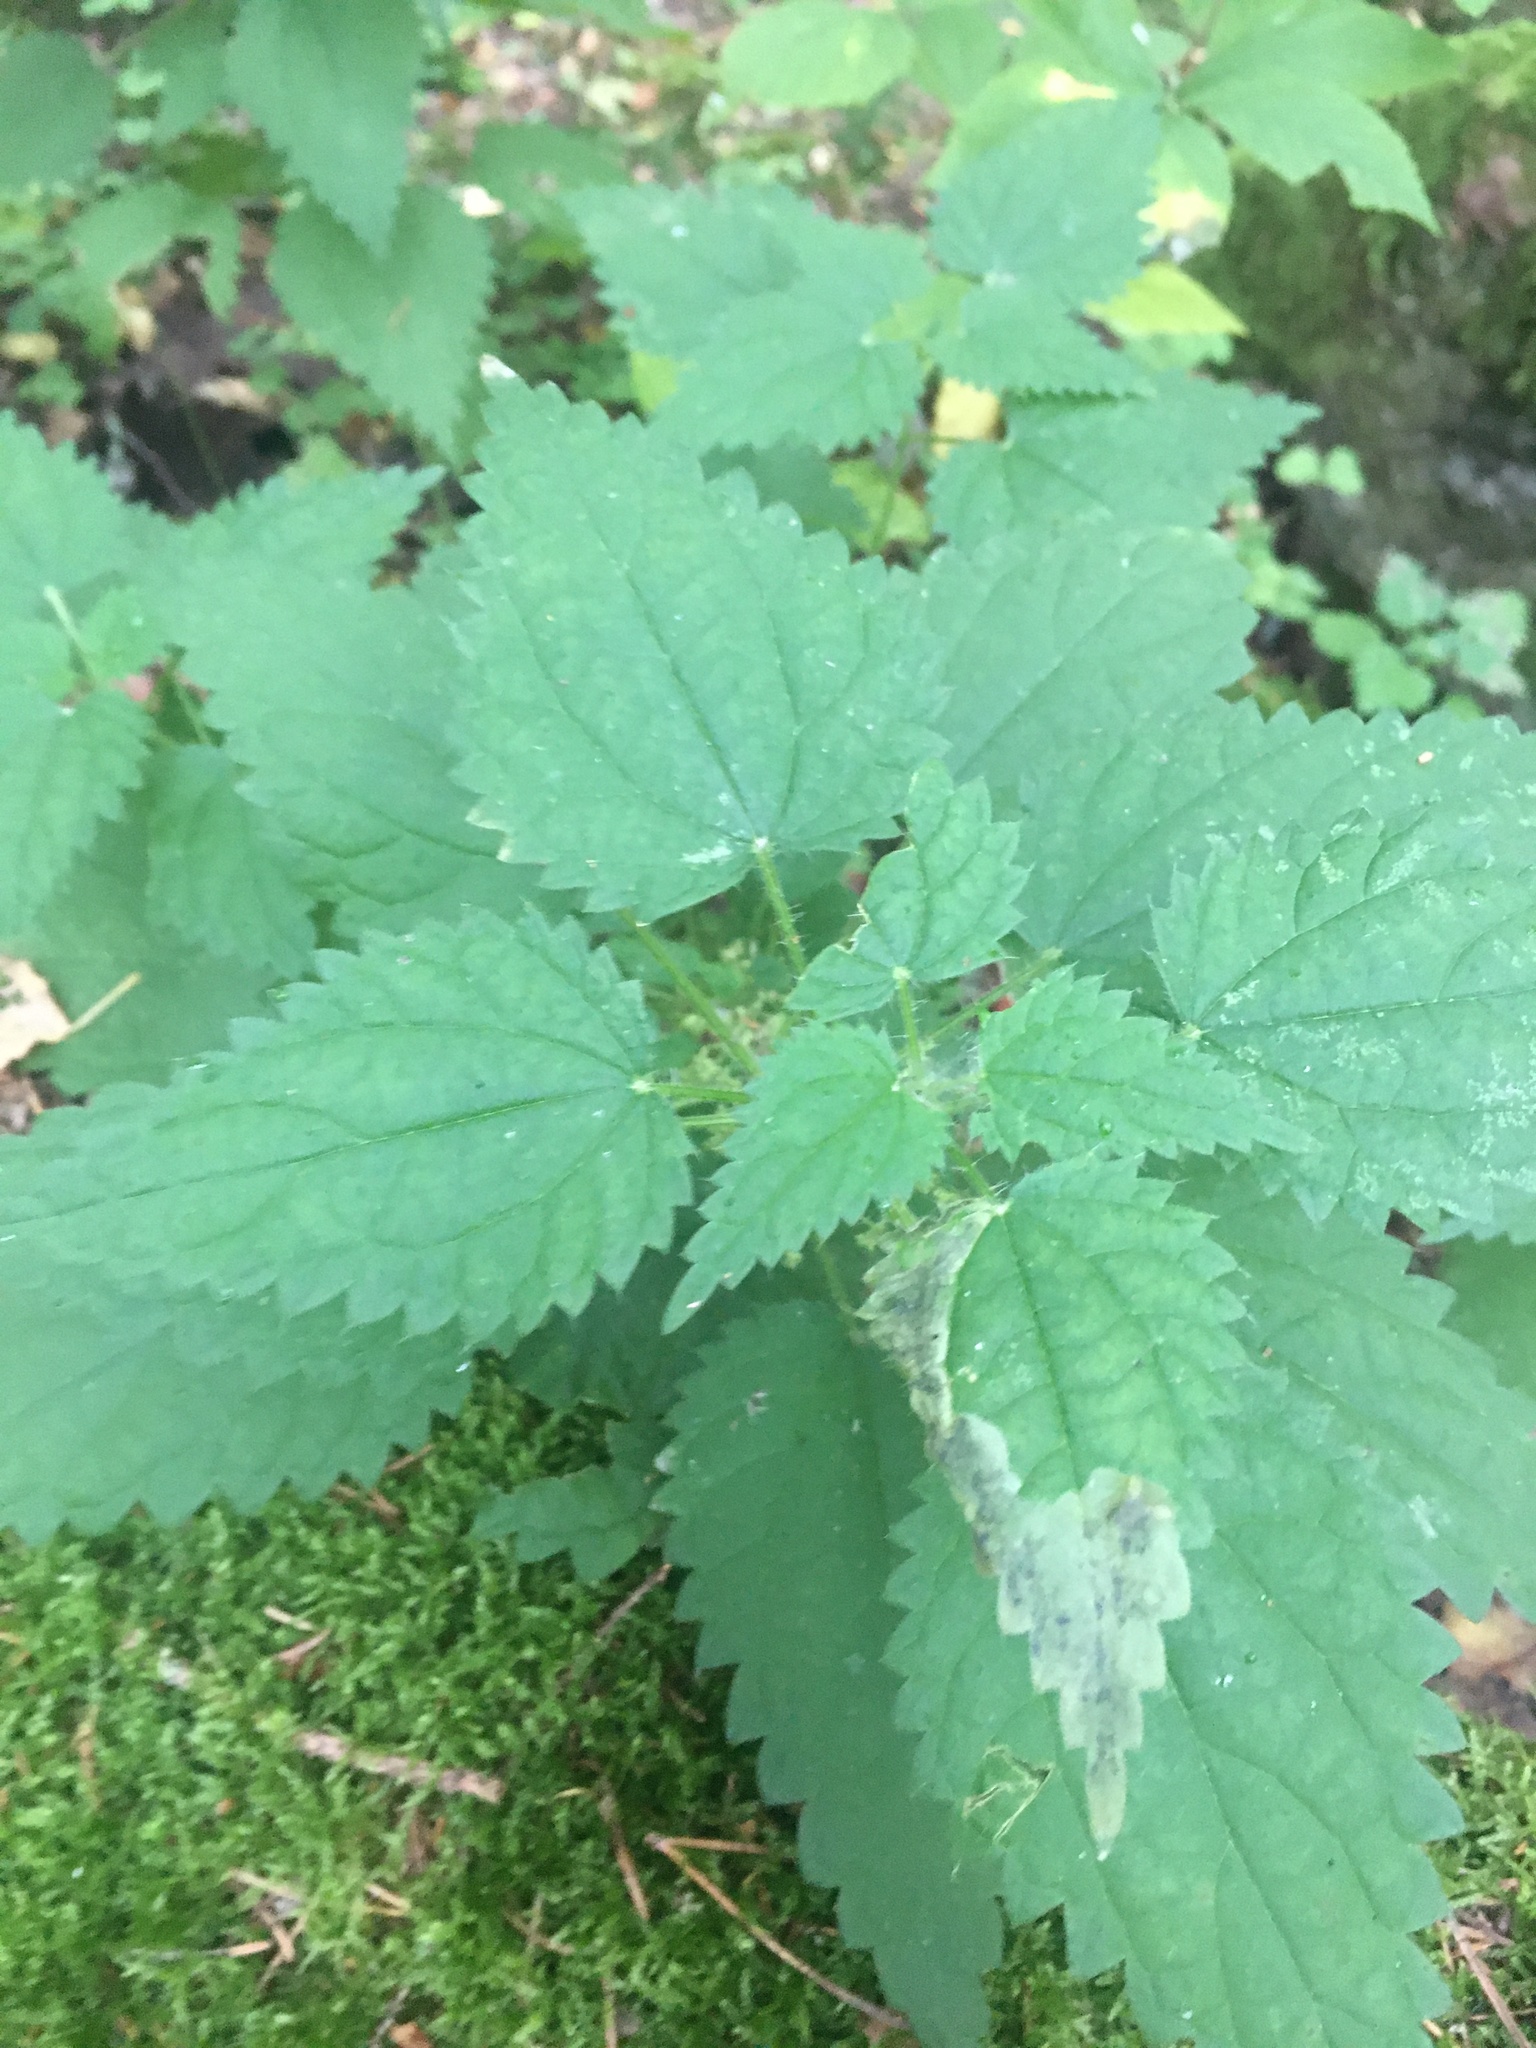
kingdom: Plantae
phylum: Tracheophyta
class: Magnoliopsida
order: Rosales
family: Urticaceae
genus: Urtica
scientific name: Urtica dioica
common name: Common nettle
